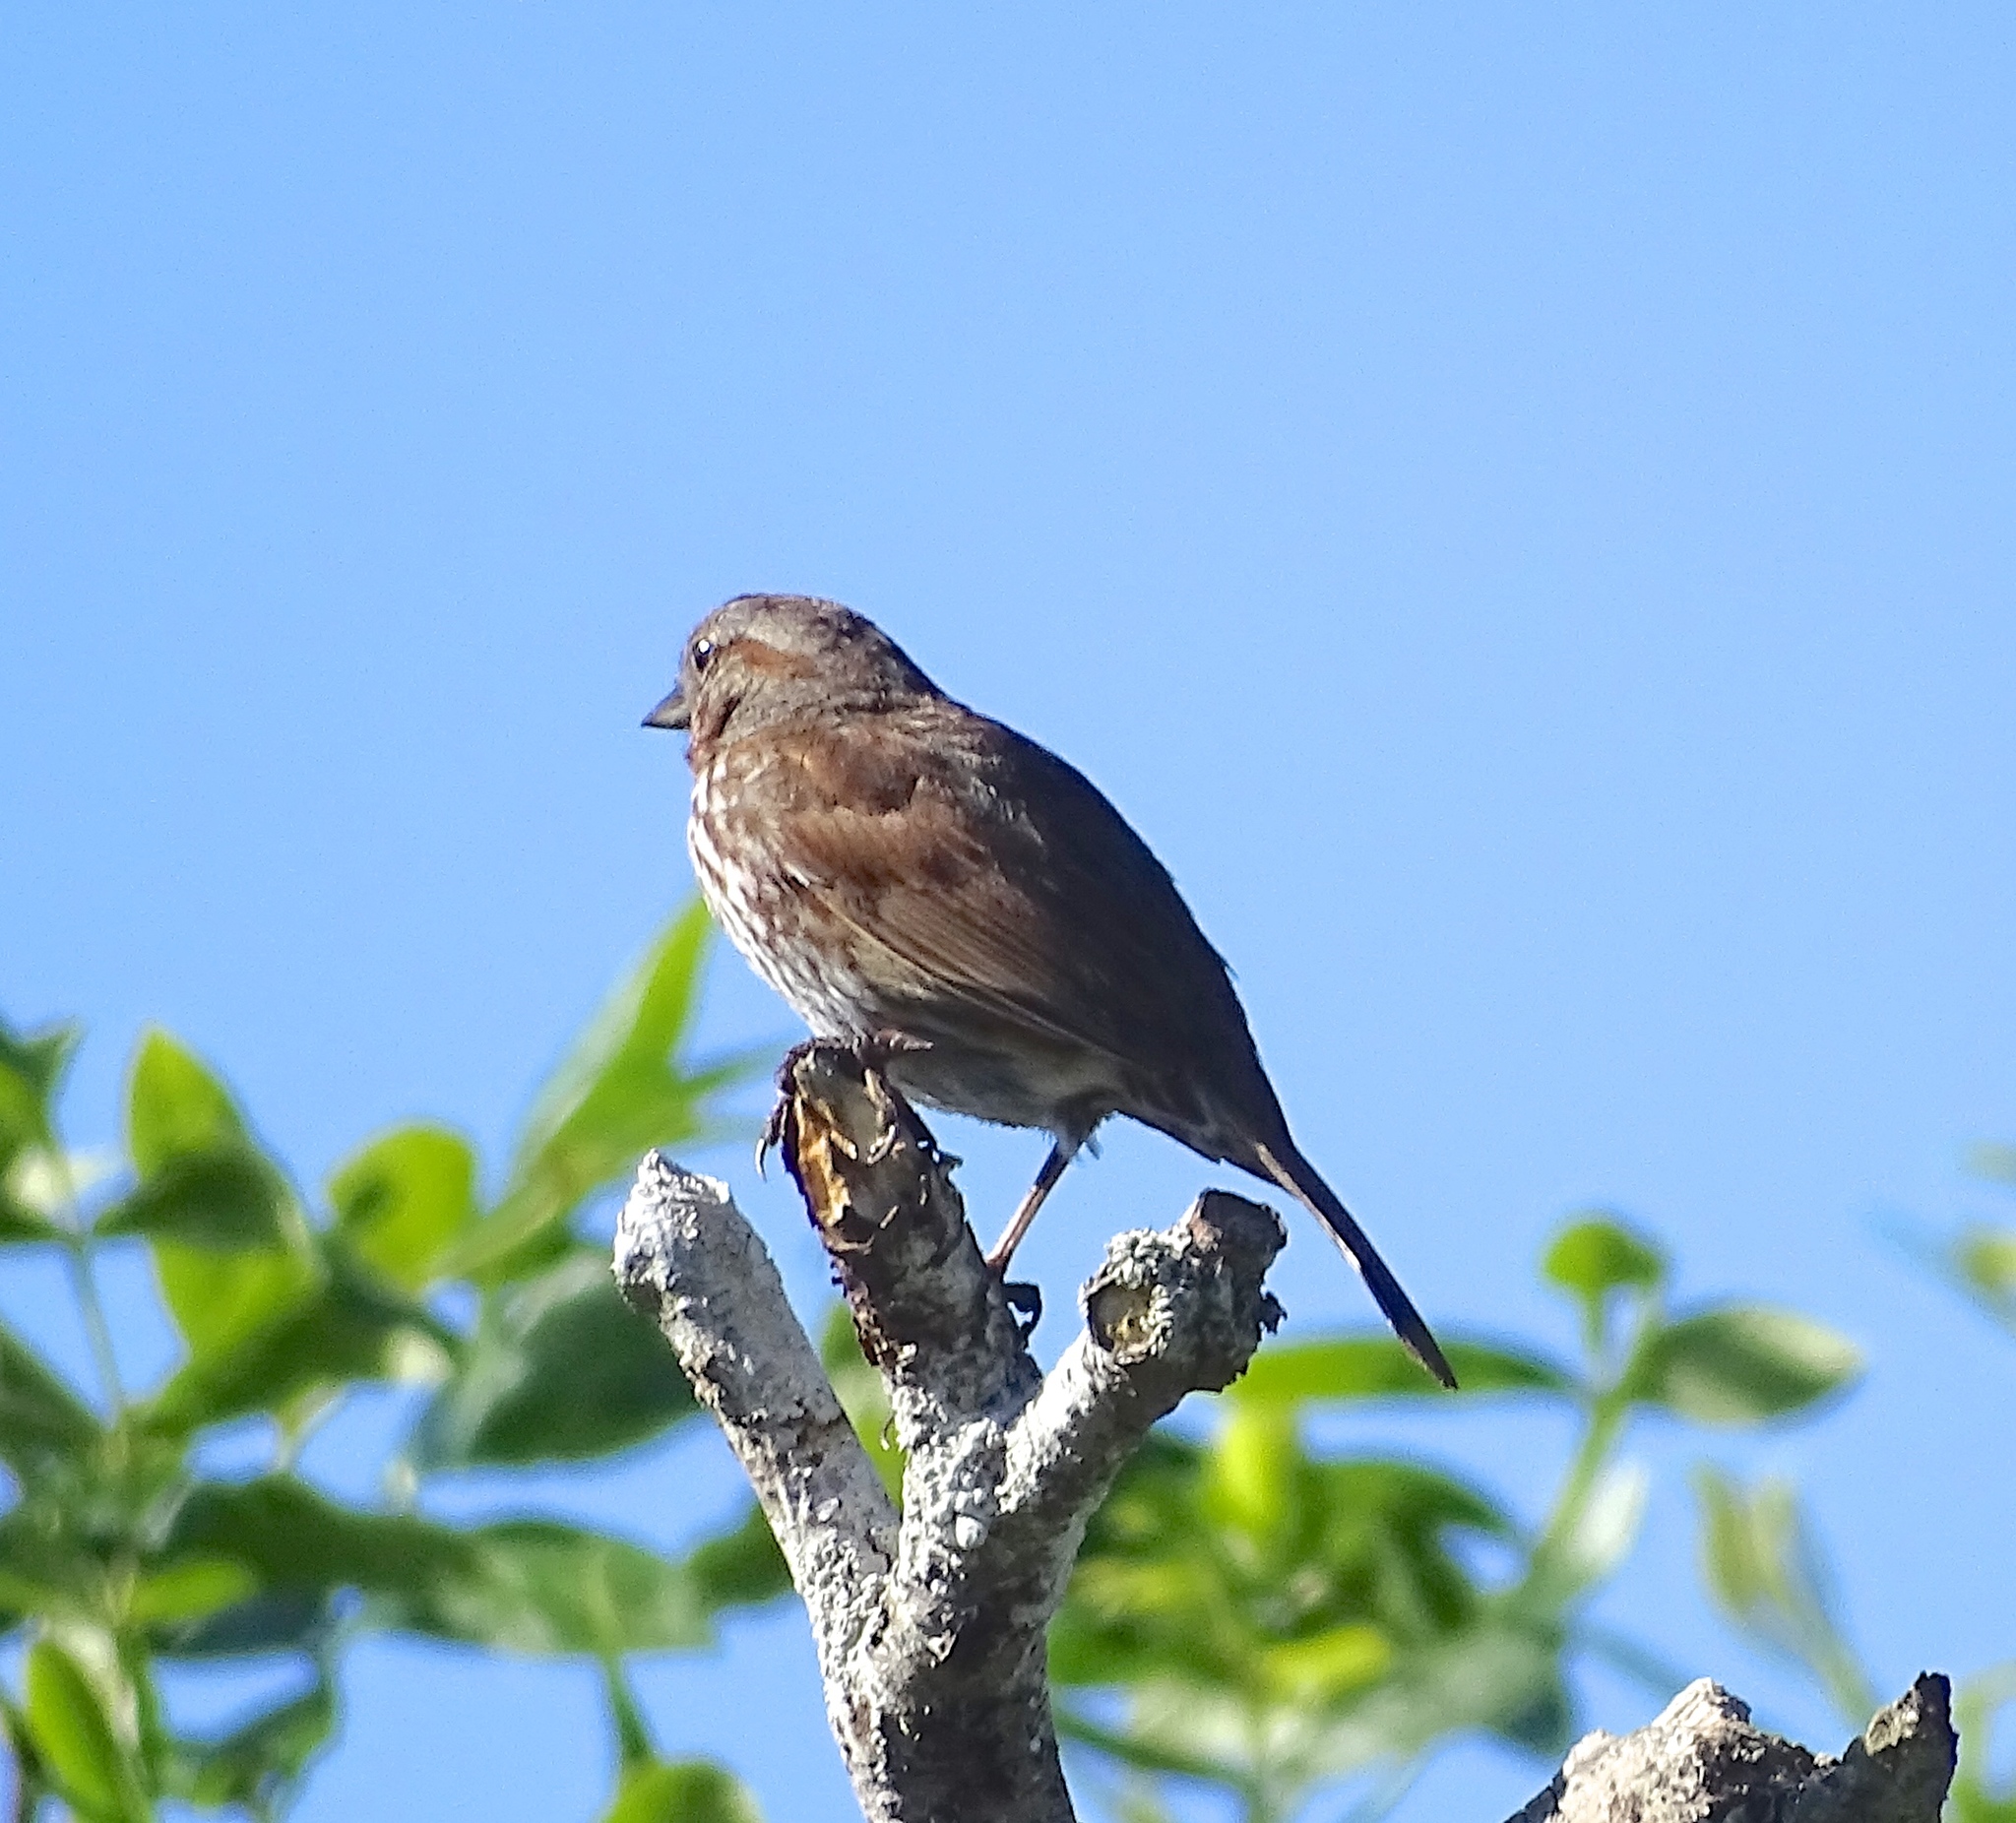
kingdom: Animalia
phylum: Chordata
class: Aves
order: Passeriformes
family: Passerellidae
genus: Melospiza
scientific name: Melospiza melodia
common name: Song sparrow
